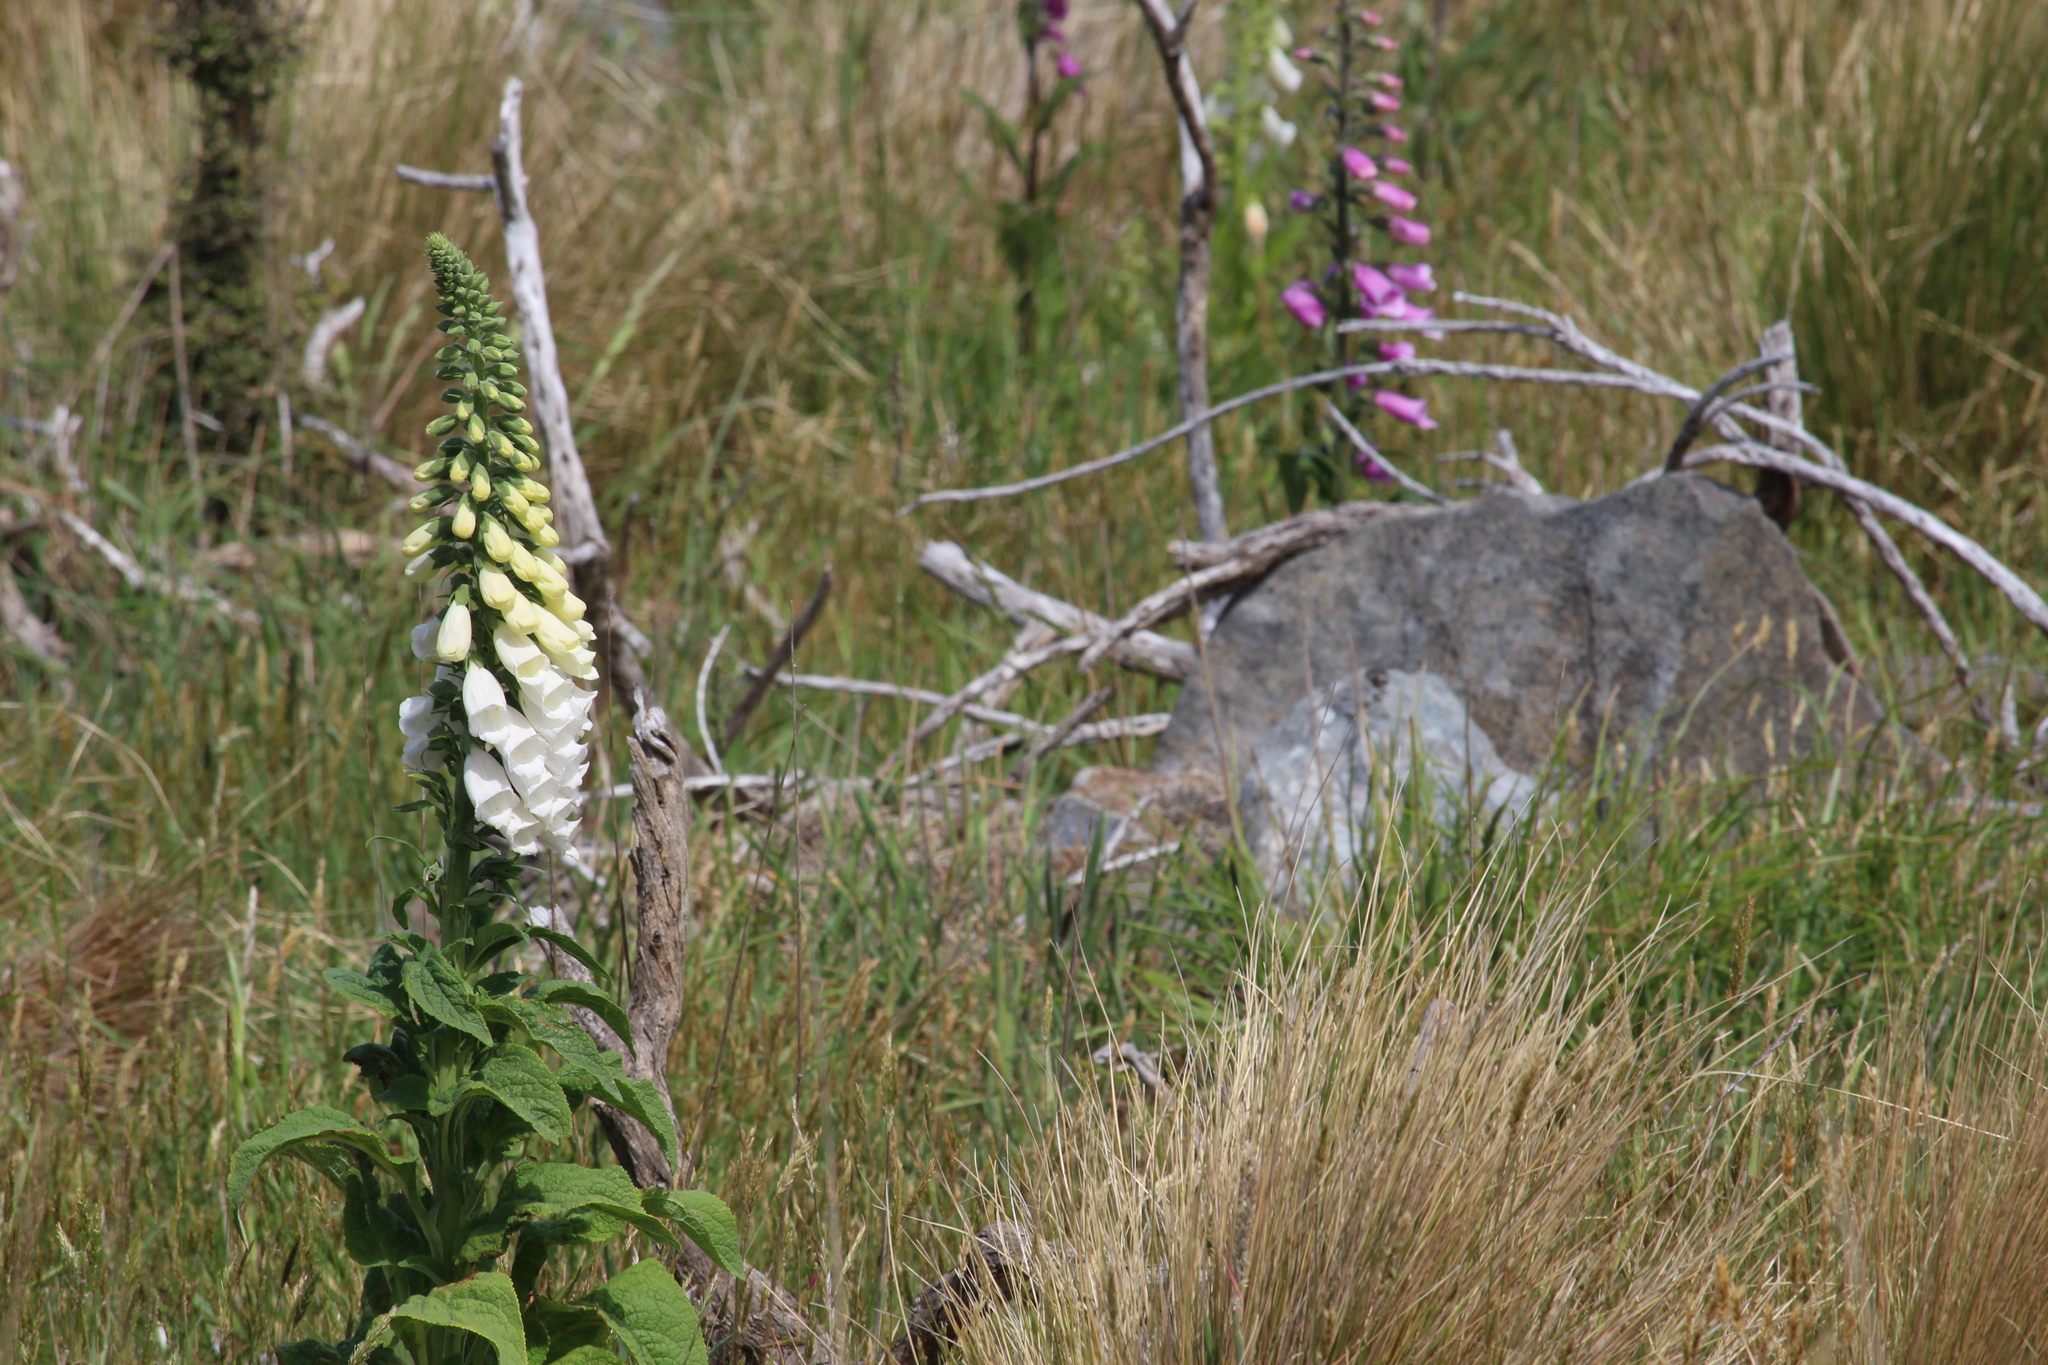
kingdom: Plantae
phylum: Tracheophyta
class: Magnoliopsida
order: Lamiales
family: Plantaginaceae
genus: Digitalis
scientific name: Digitalis purpurea
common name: Foxglove
